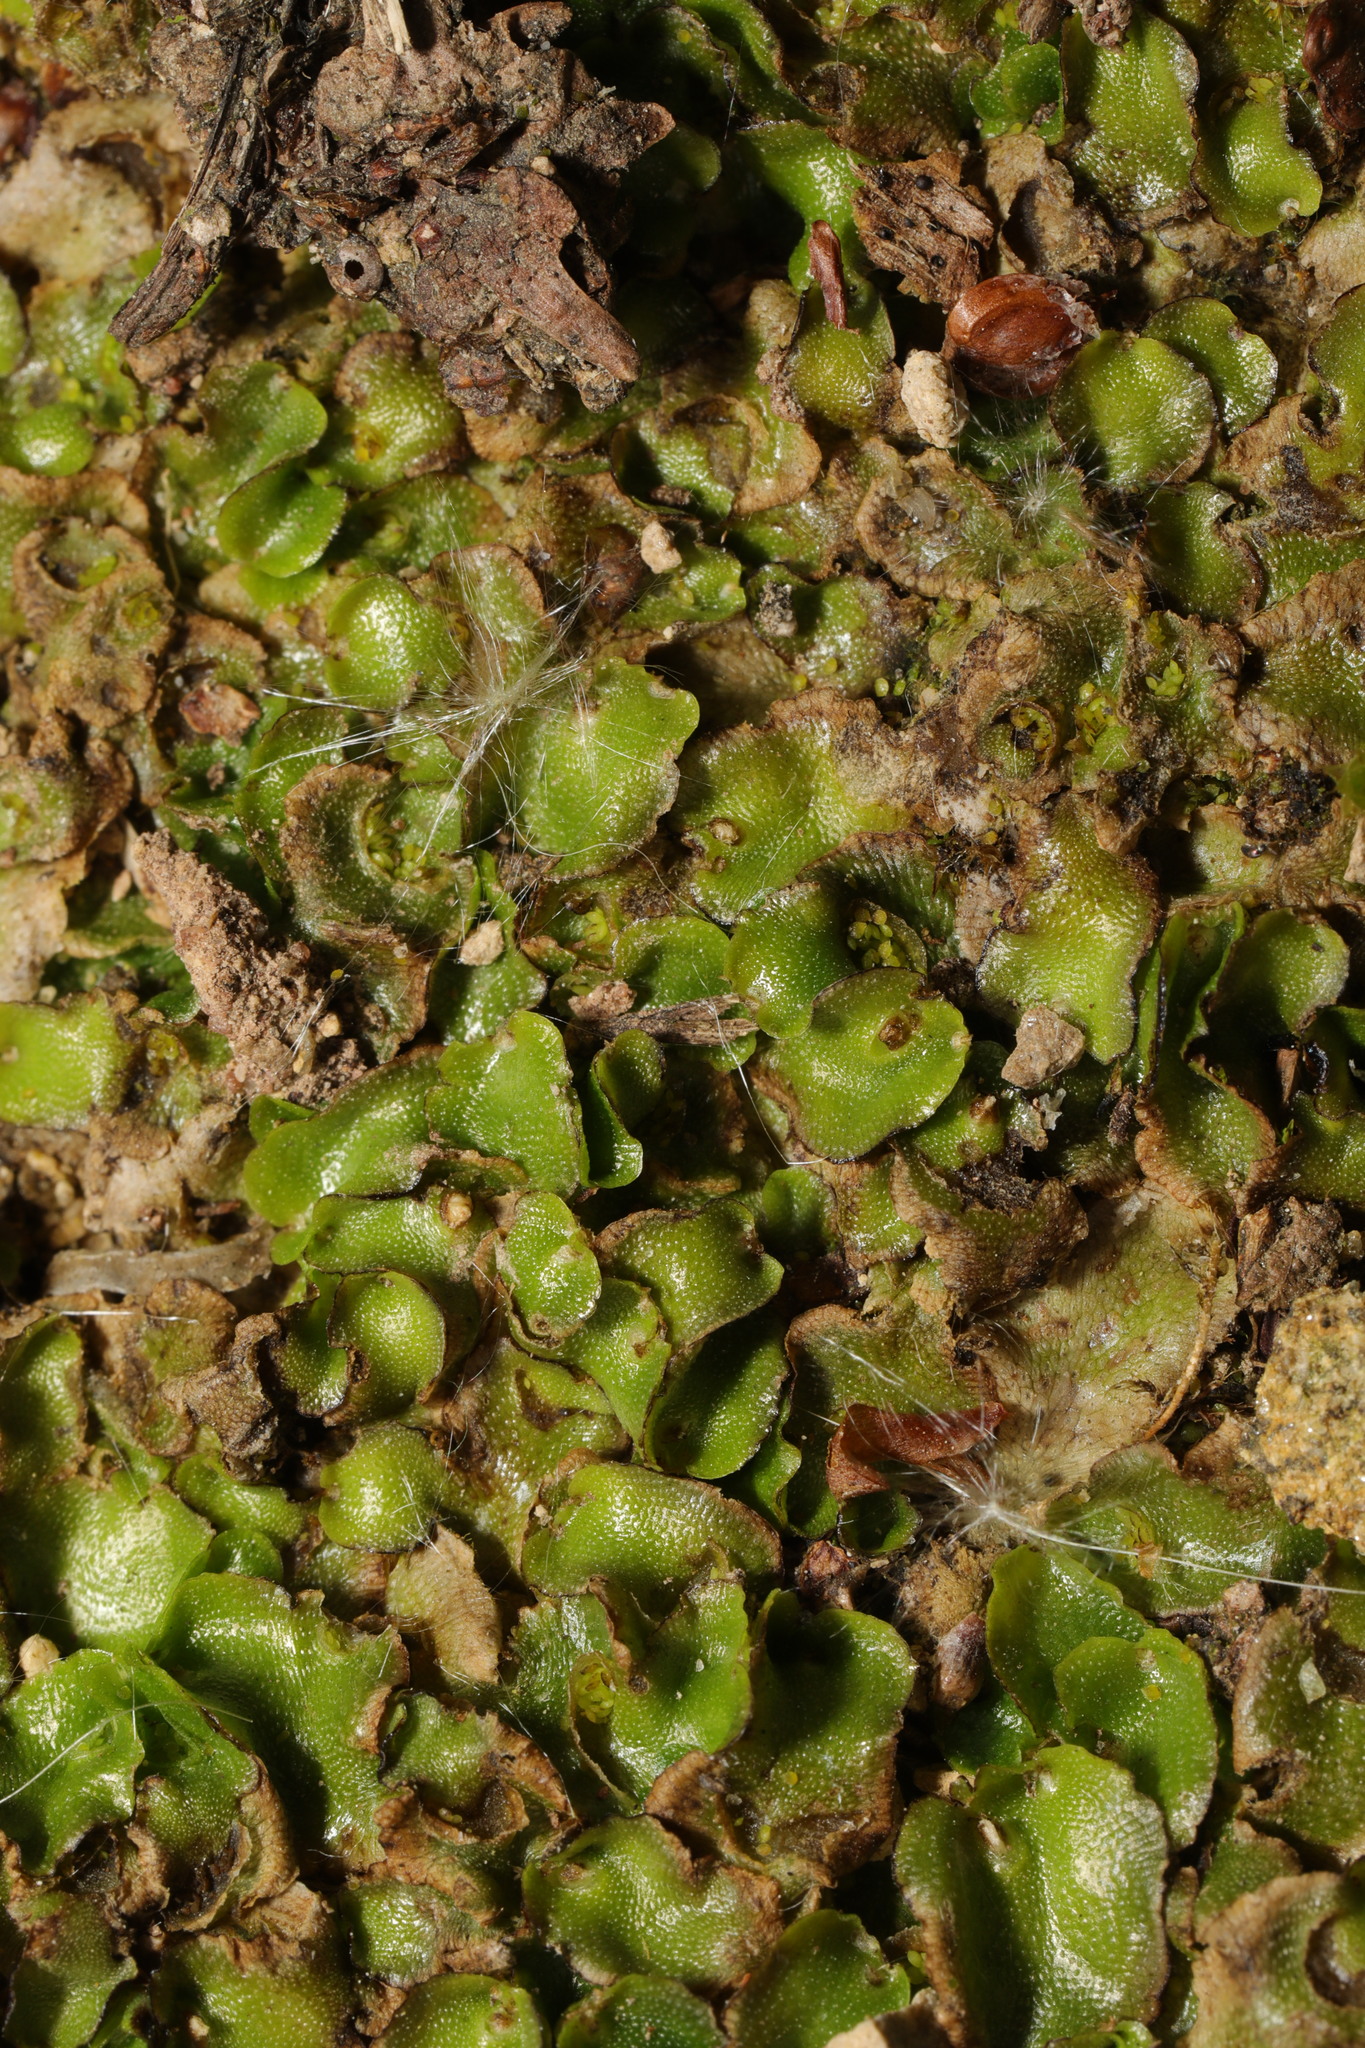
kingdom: Plantae
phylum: Marchantiophyta
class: Marchantiopsida
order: Lunulariales
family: Lunulariaceae
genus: Lunularia
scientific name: Lunularia cruciata
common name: Crescent-cup liverwort
